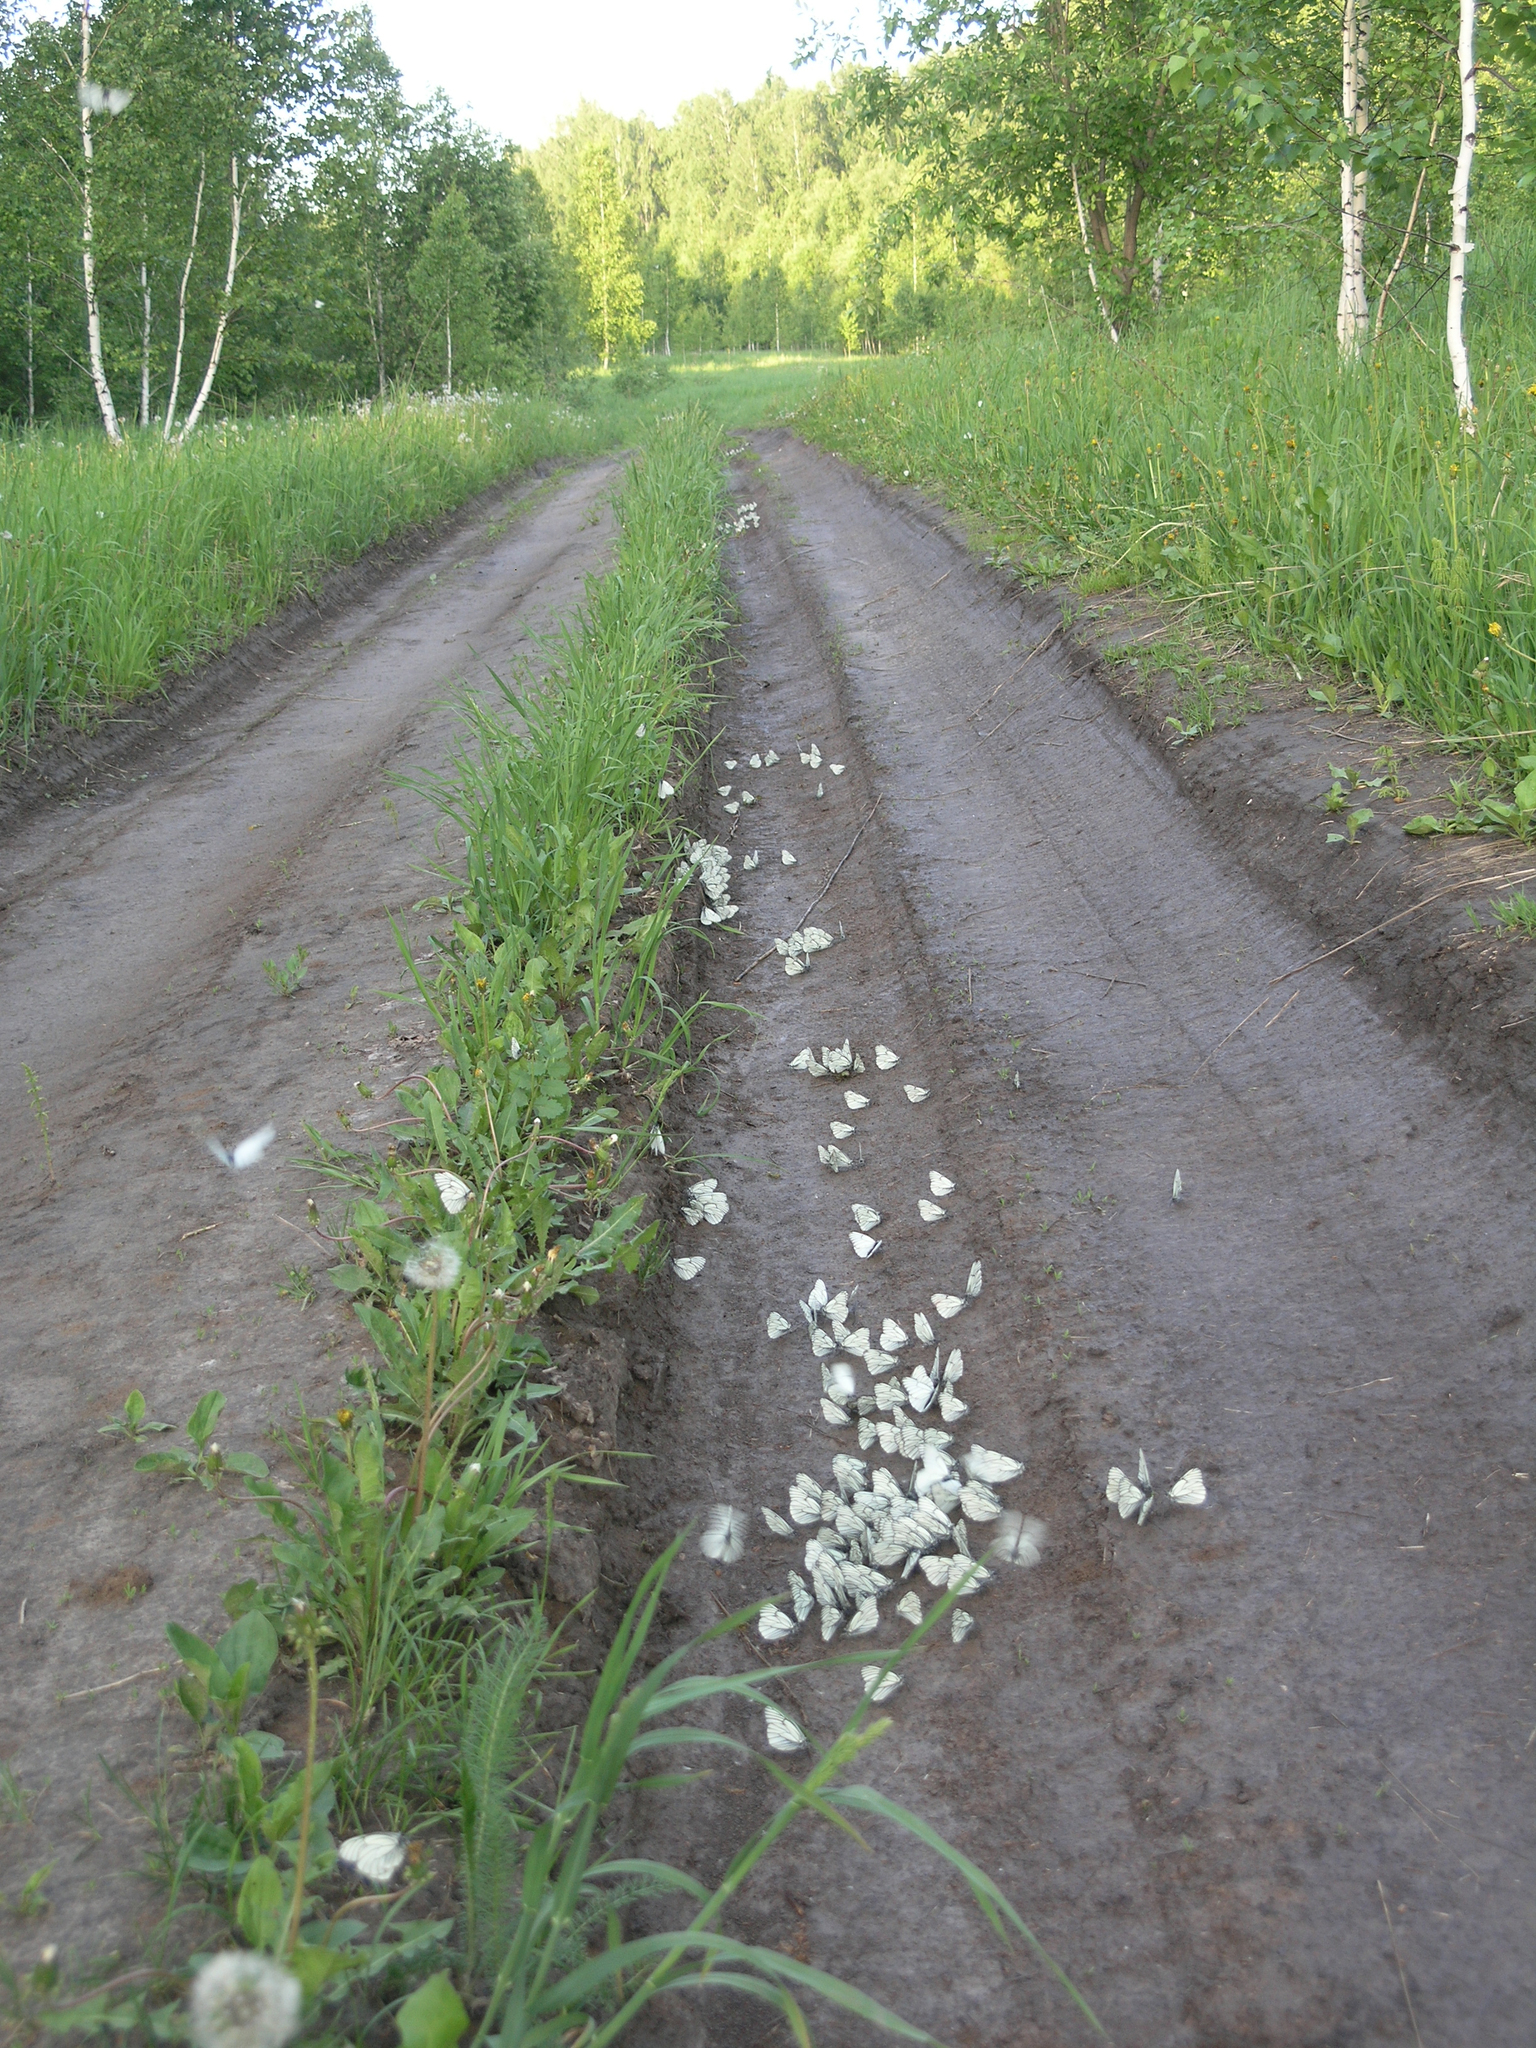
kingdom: Animalia
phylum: Arthropoda
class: Insecta
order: Lepidoptera
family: Pieridae
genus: Aporia
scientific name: Aporia crataegi
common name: Black-veined white
